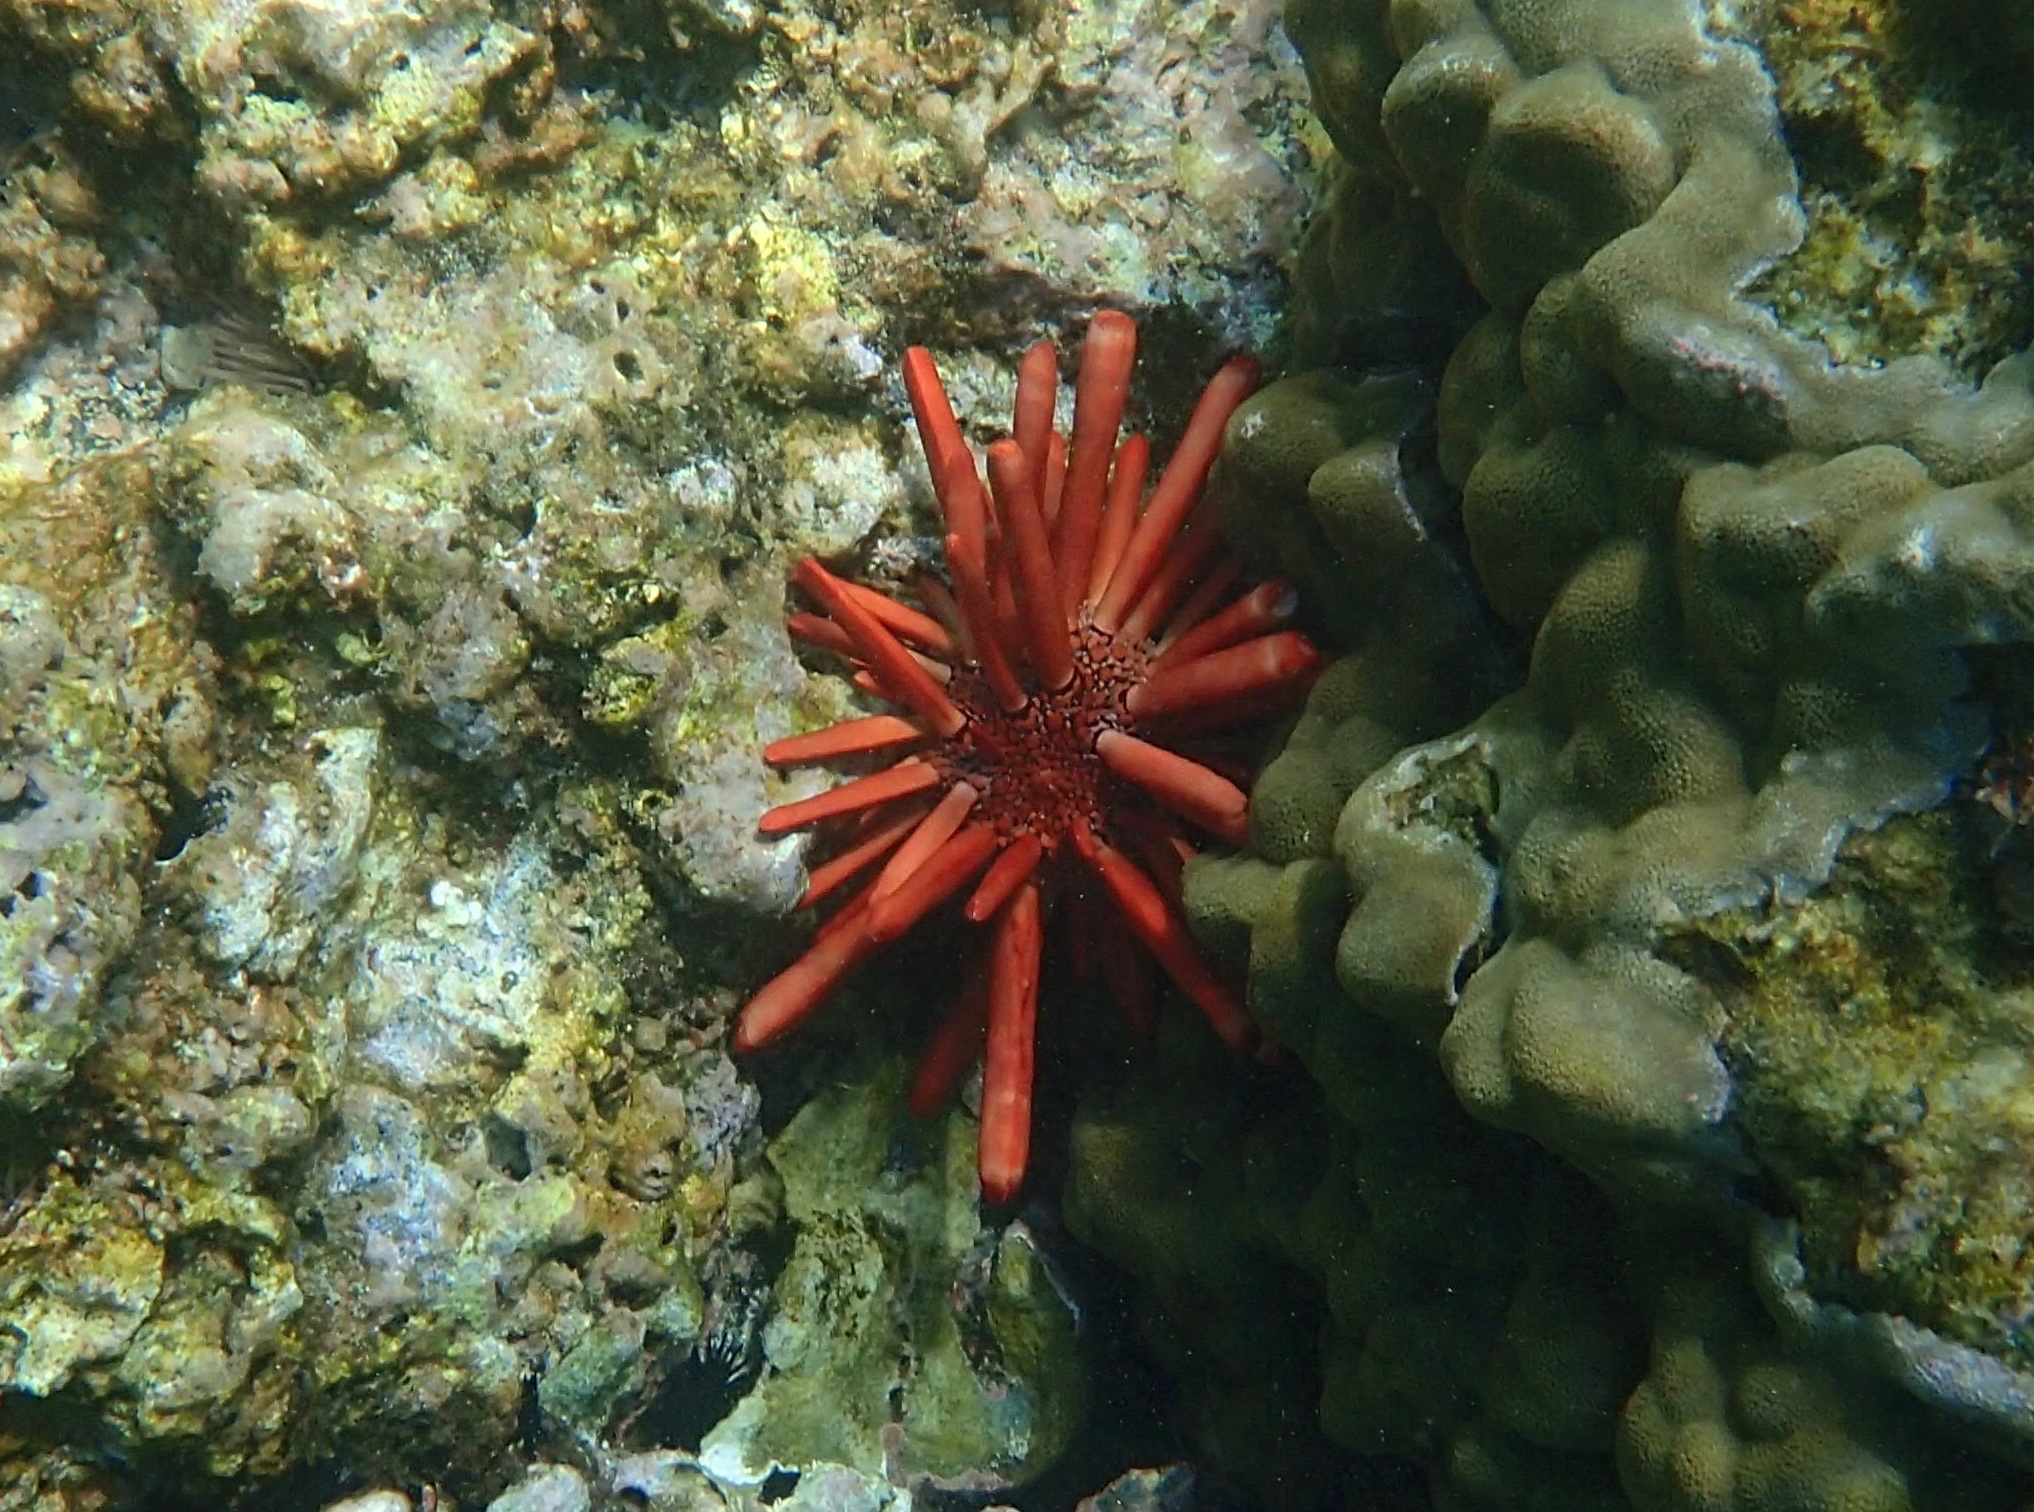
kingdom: Animalia
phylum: Echinodermata
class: Echinoidea
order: Camarodonta
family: Echinometridae
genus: Heterocentrotus
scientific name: Heterocentrotus mamillatus
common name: Slate pencil urchin
